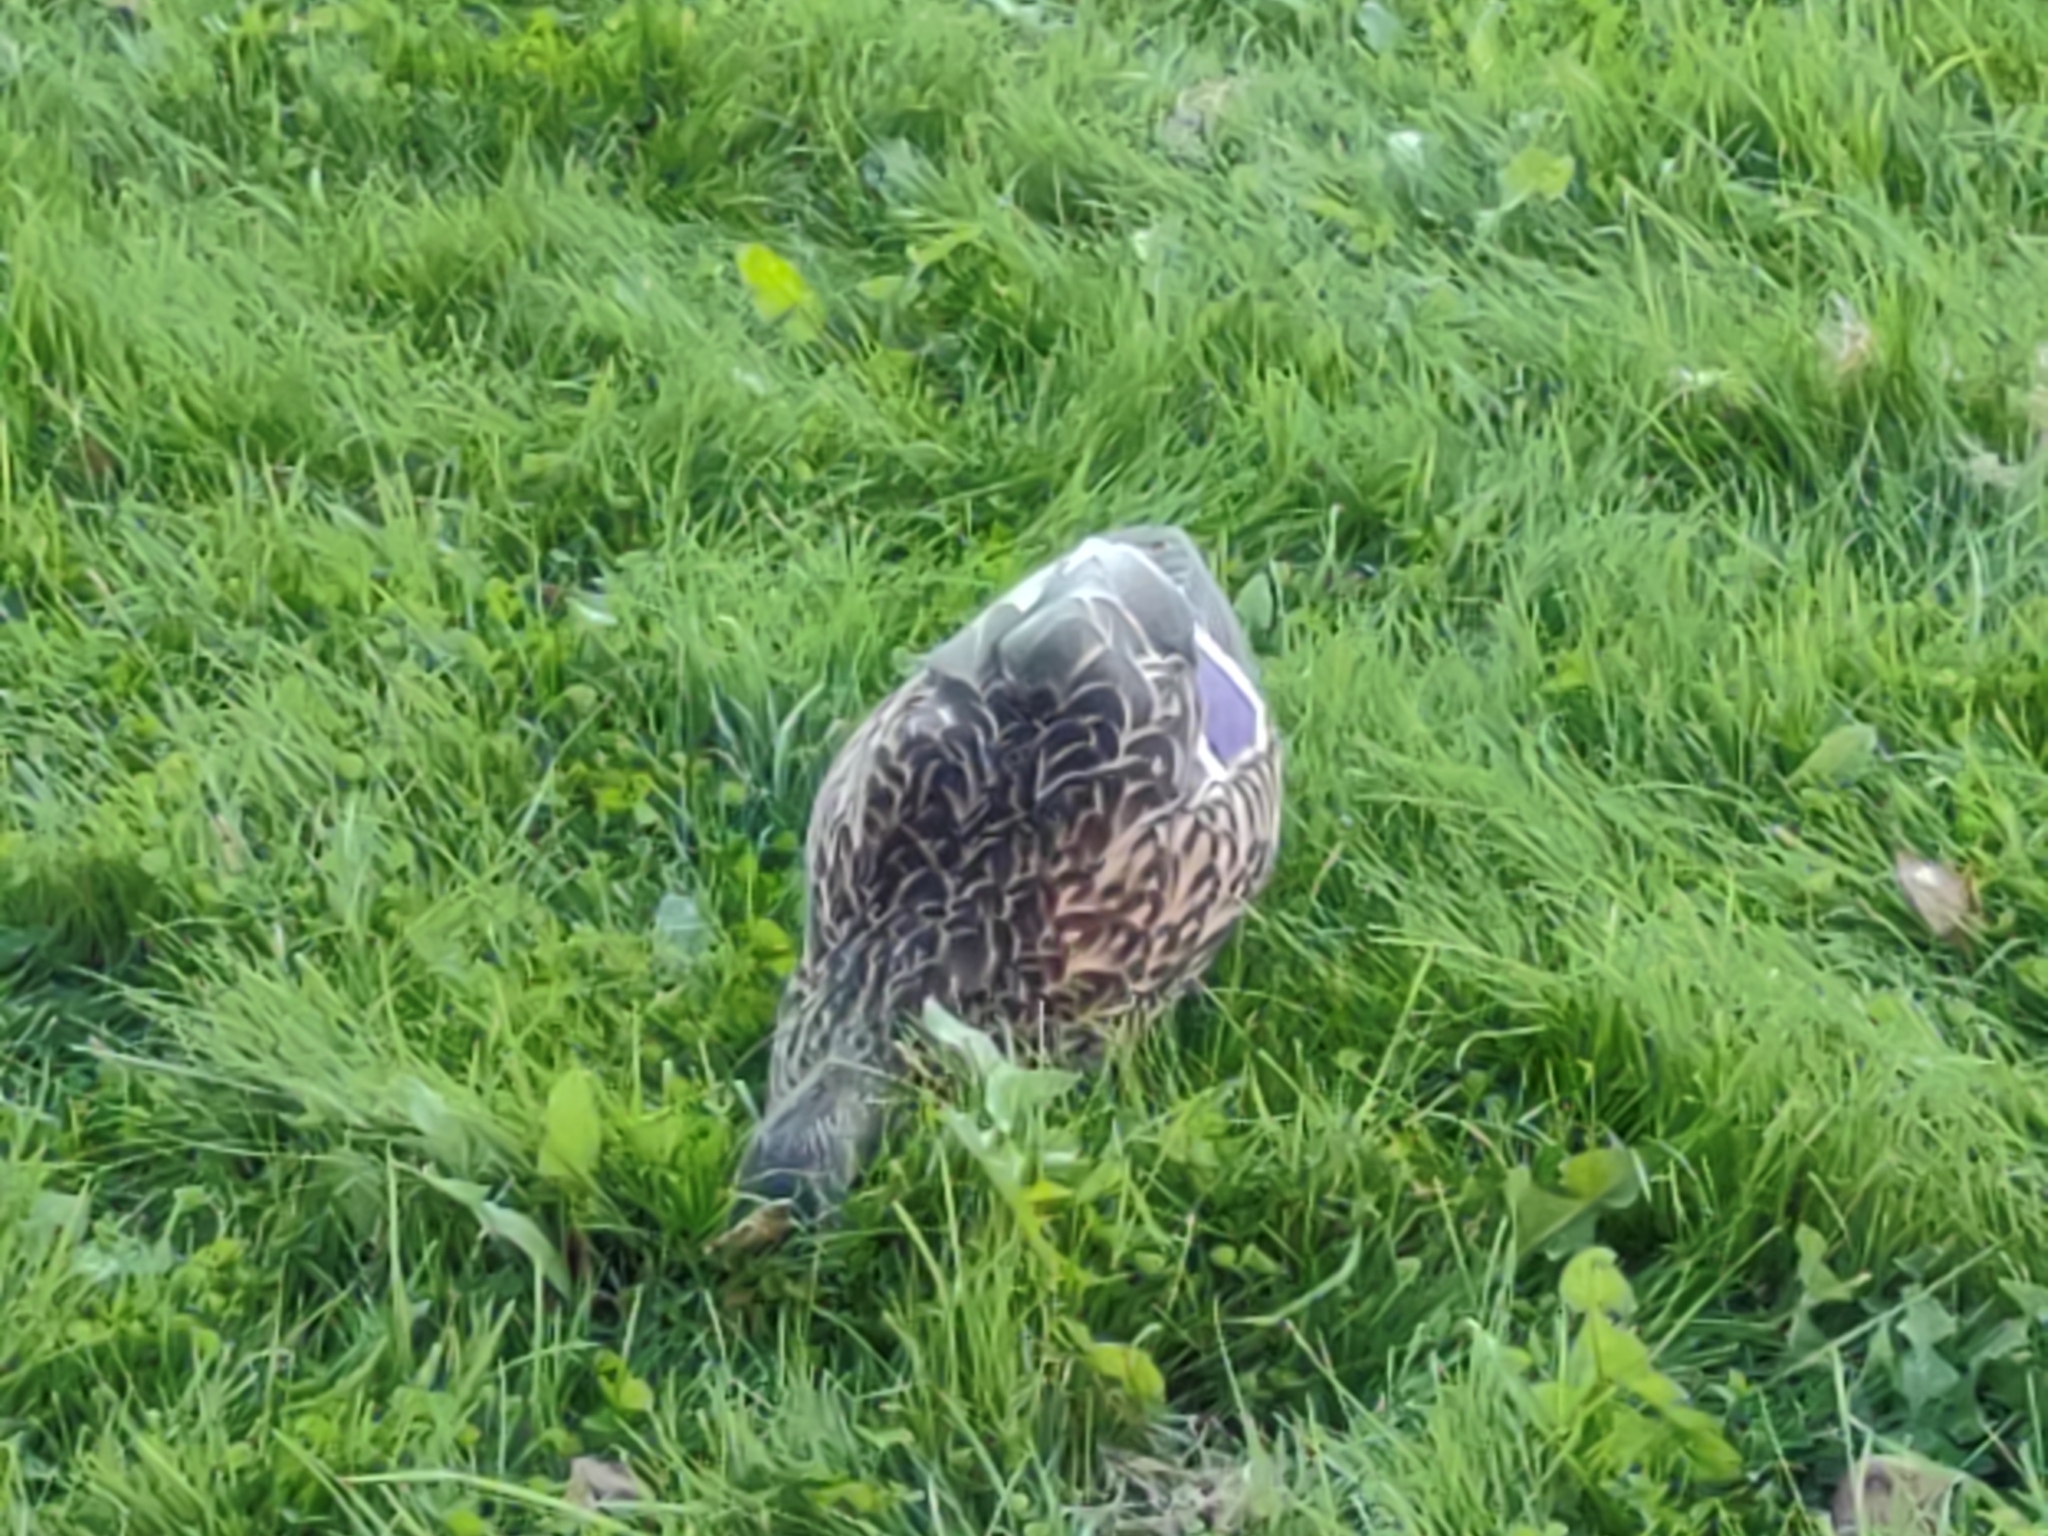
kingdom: Animalia
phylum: Chordata
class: Aves
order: Anseriformes
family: Anatidae
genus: Anas
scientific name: Anas platyrhynchos
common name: Mallard
